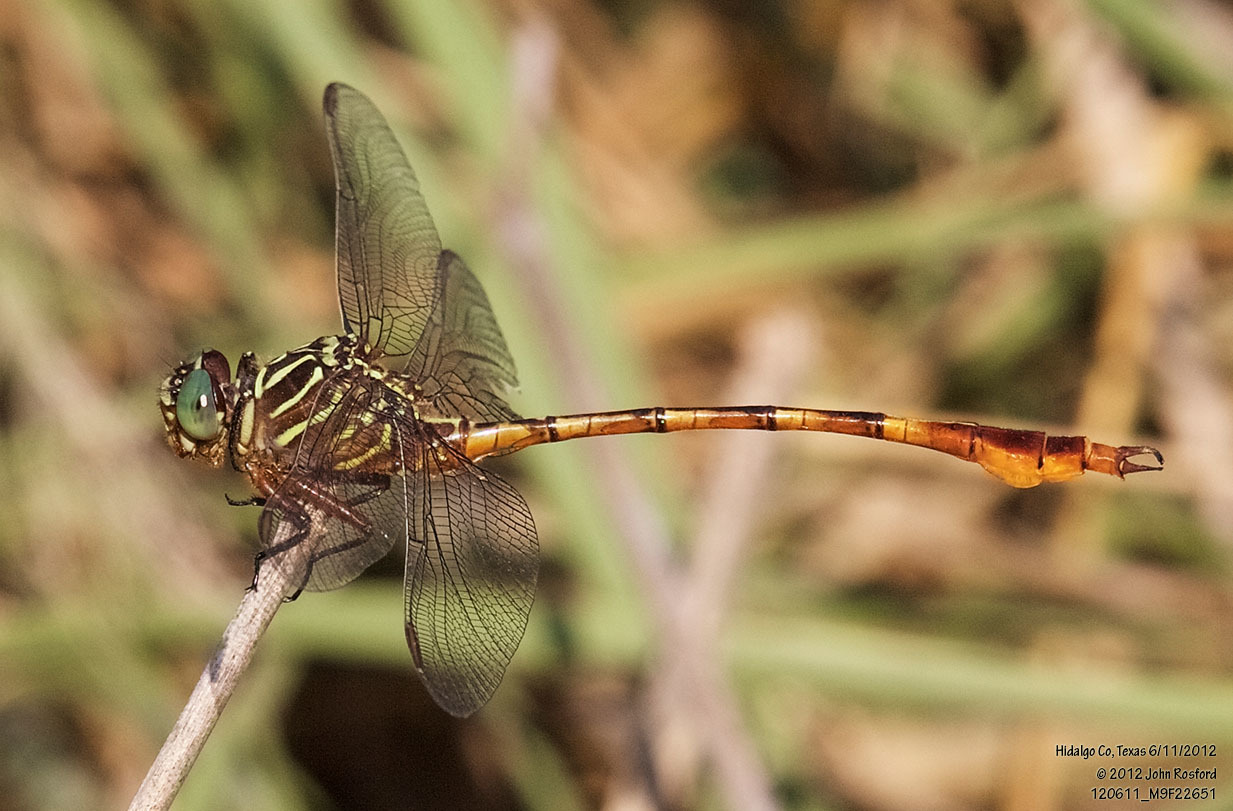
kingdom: Animalia
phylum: Arthropoda
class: Insecta
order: Odonata
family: Gomphidae
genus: Aphylla
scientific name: Aphylla protracta
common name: Narrow-striped forceptail
